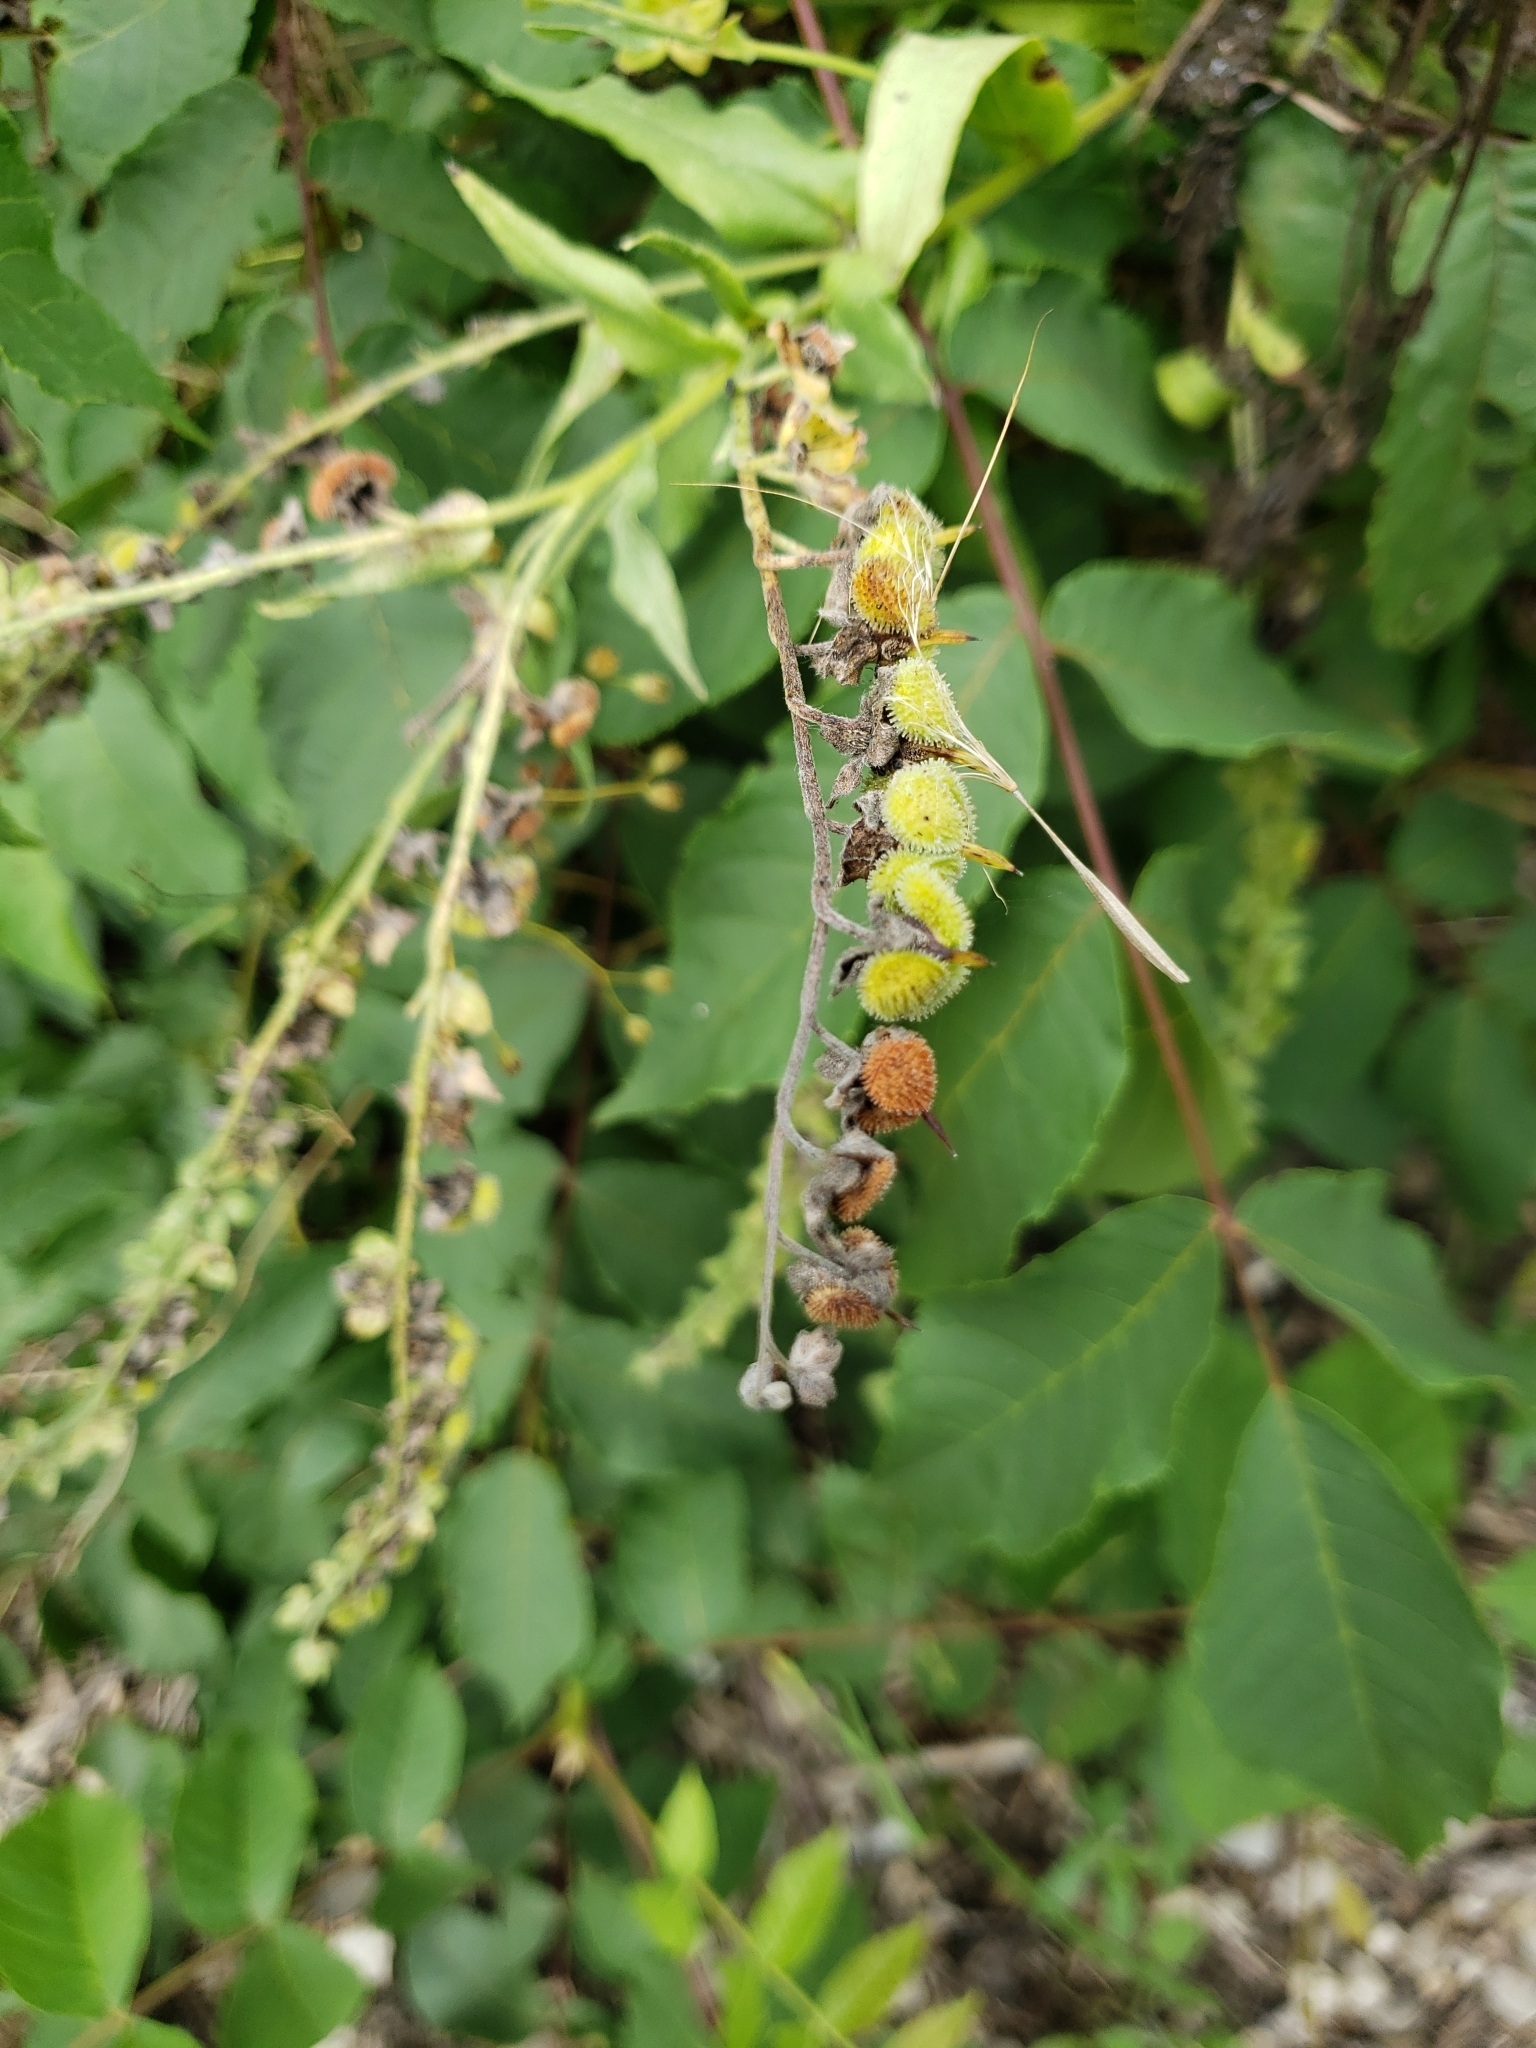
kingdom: Plantae
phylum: Tracheophyta
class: Magnoliopsida
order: Boraginales
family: Boraginaceae
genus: Hackelia
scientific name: Hackelia virginiana
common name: Beggar's-lice
